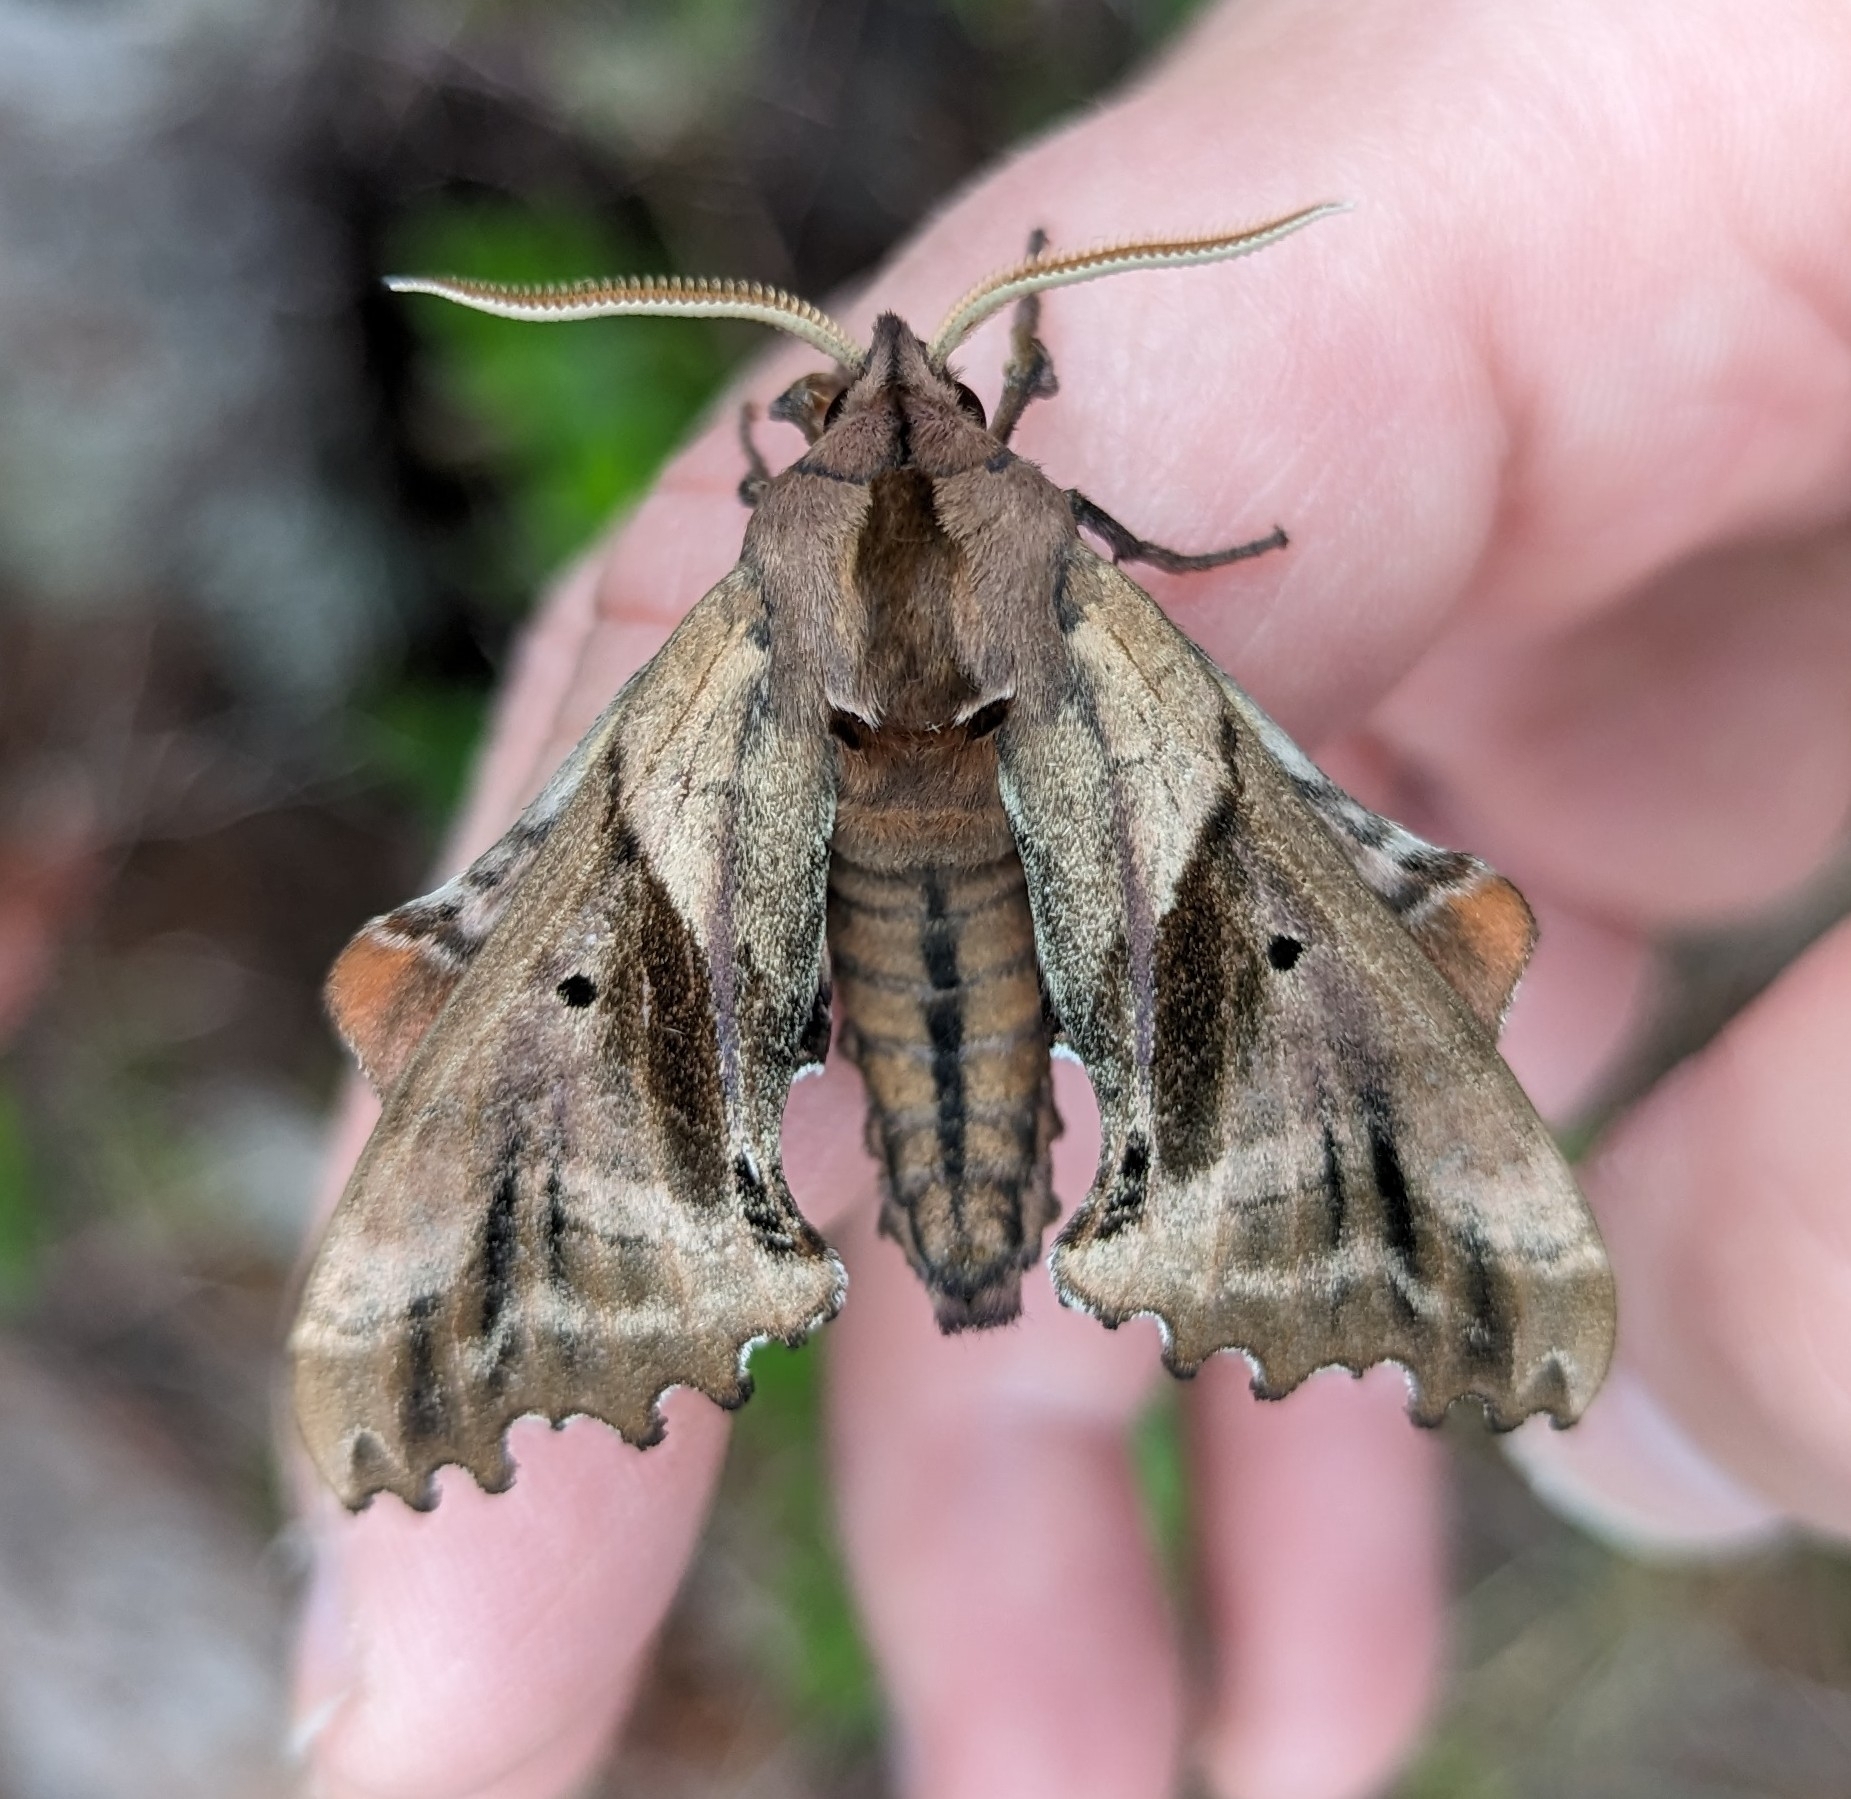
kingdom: Animalia
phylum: Arthropoda
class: Insecta
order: Lepidoptera
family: Sphingidae
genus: Paonias
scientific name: Paonias excaecata
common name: Blind-eyed sphinx
